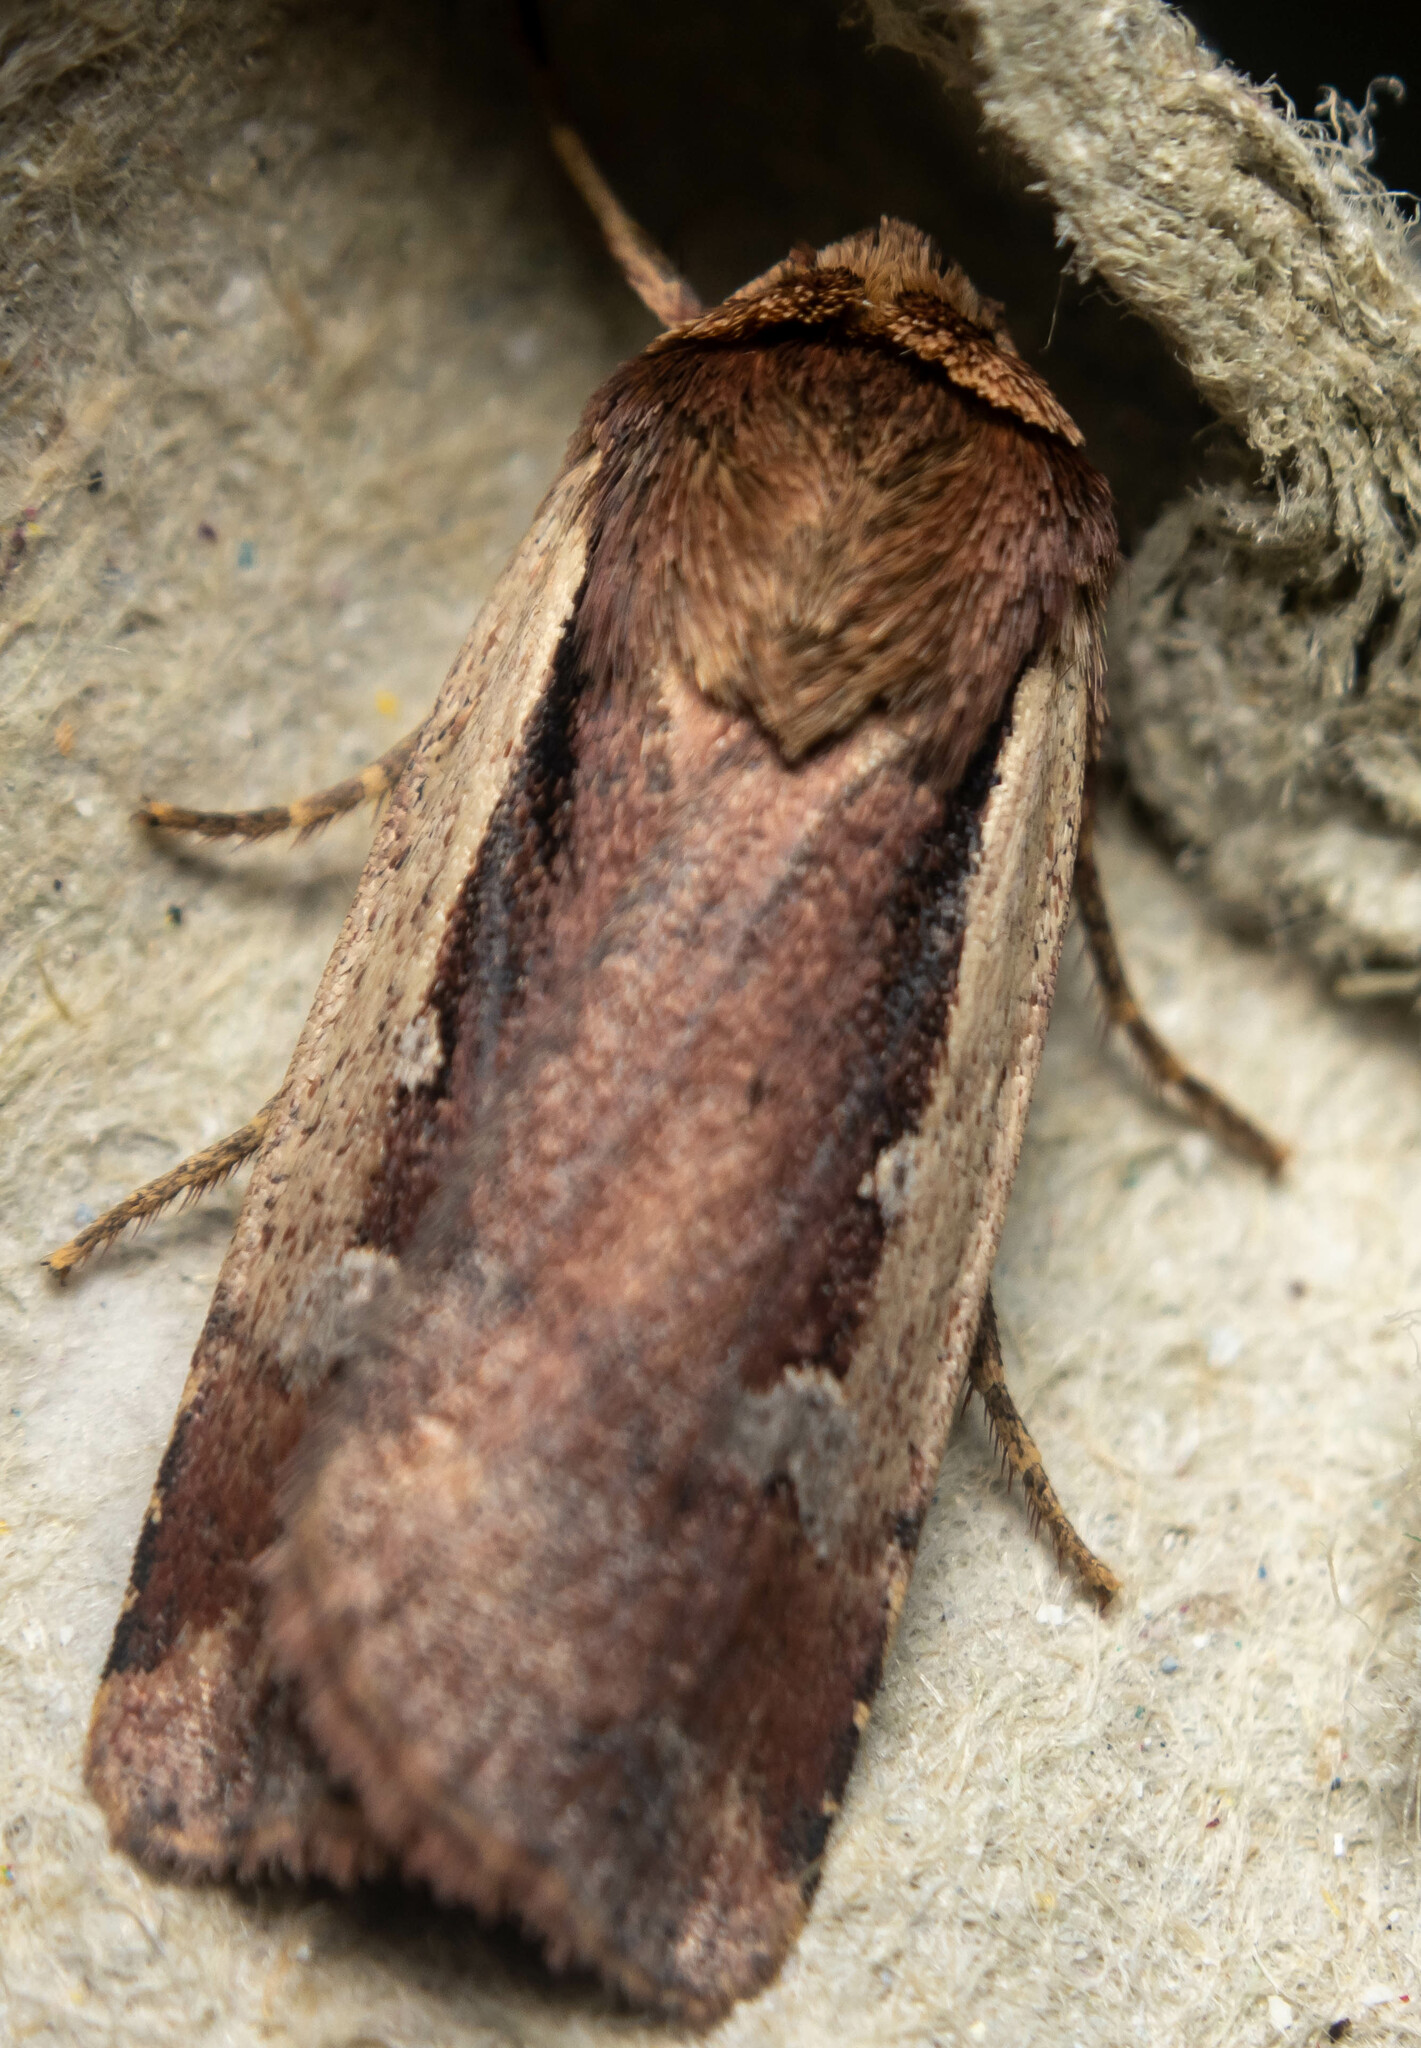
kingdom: Animalia
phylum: Arthropoda
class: Insecta
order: Lepidoptera
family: Noctuidae
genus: Ochropleura
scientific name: Ochropleura plecta
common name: Flame shoulder
